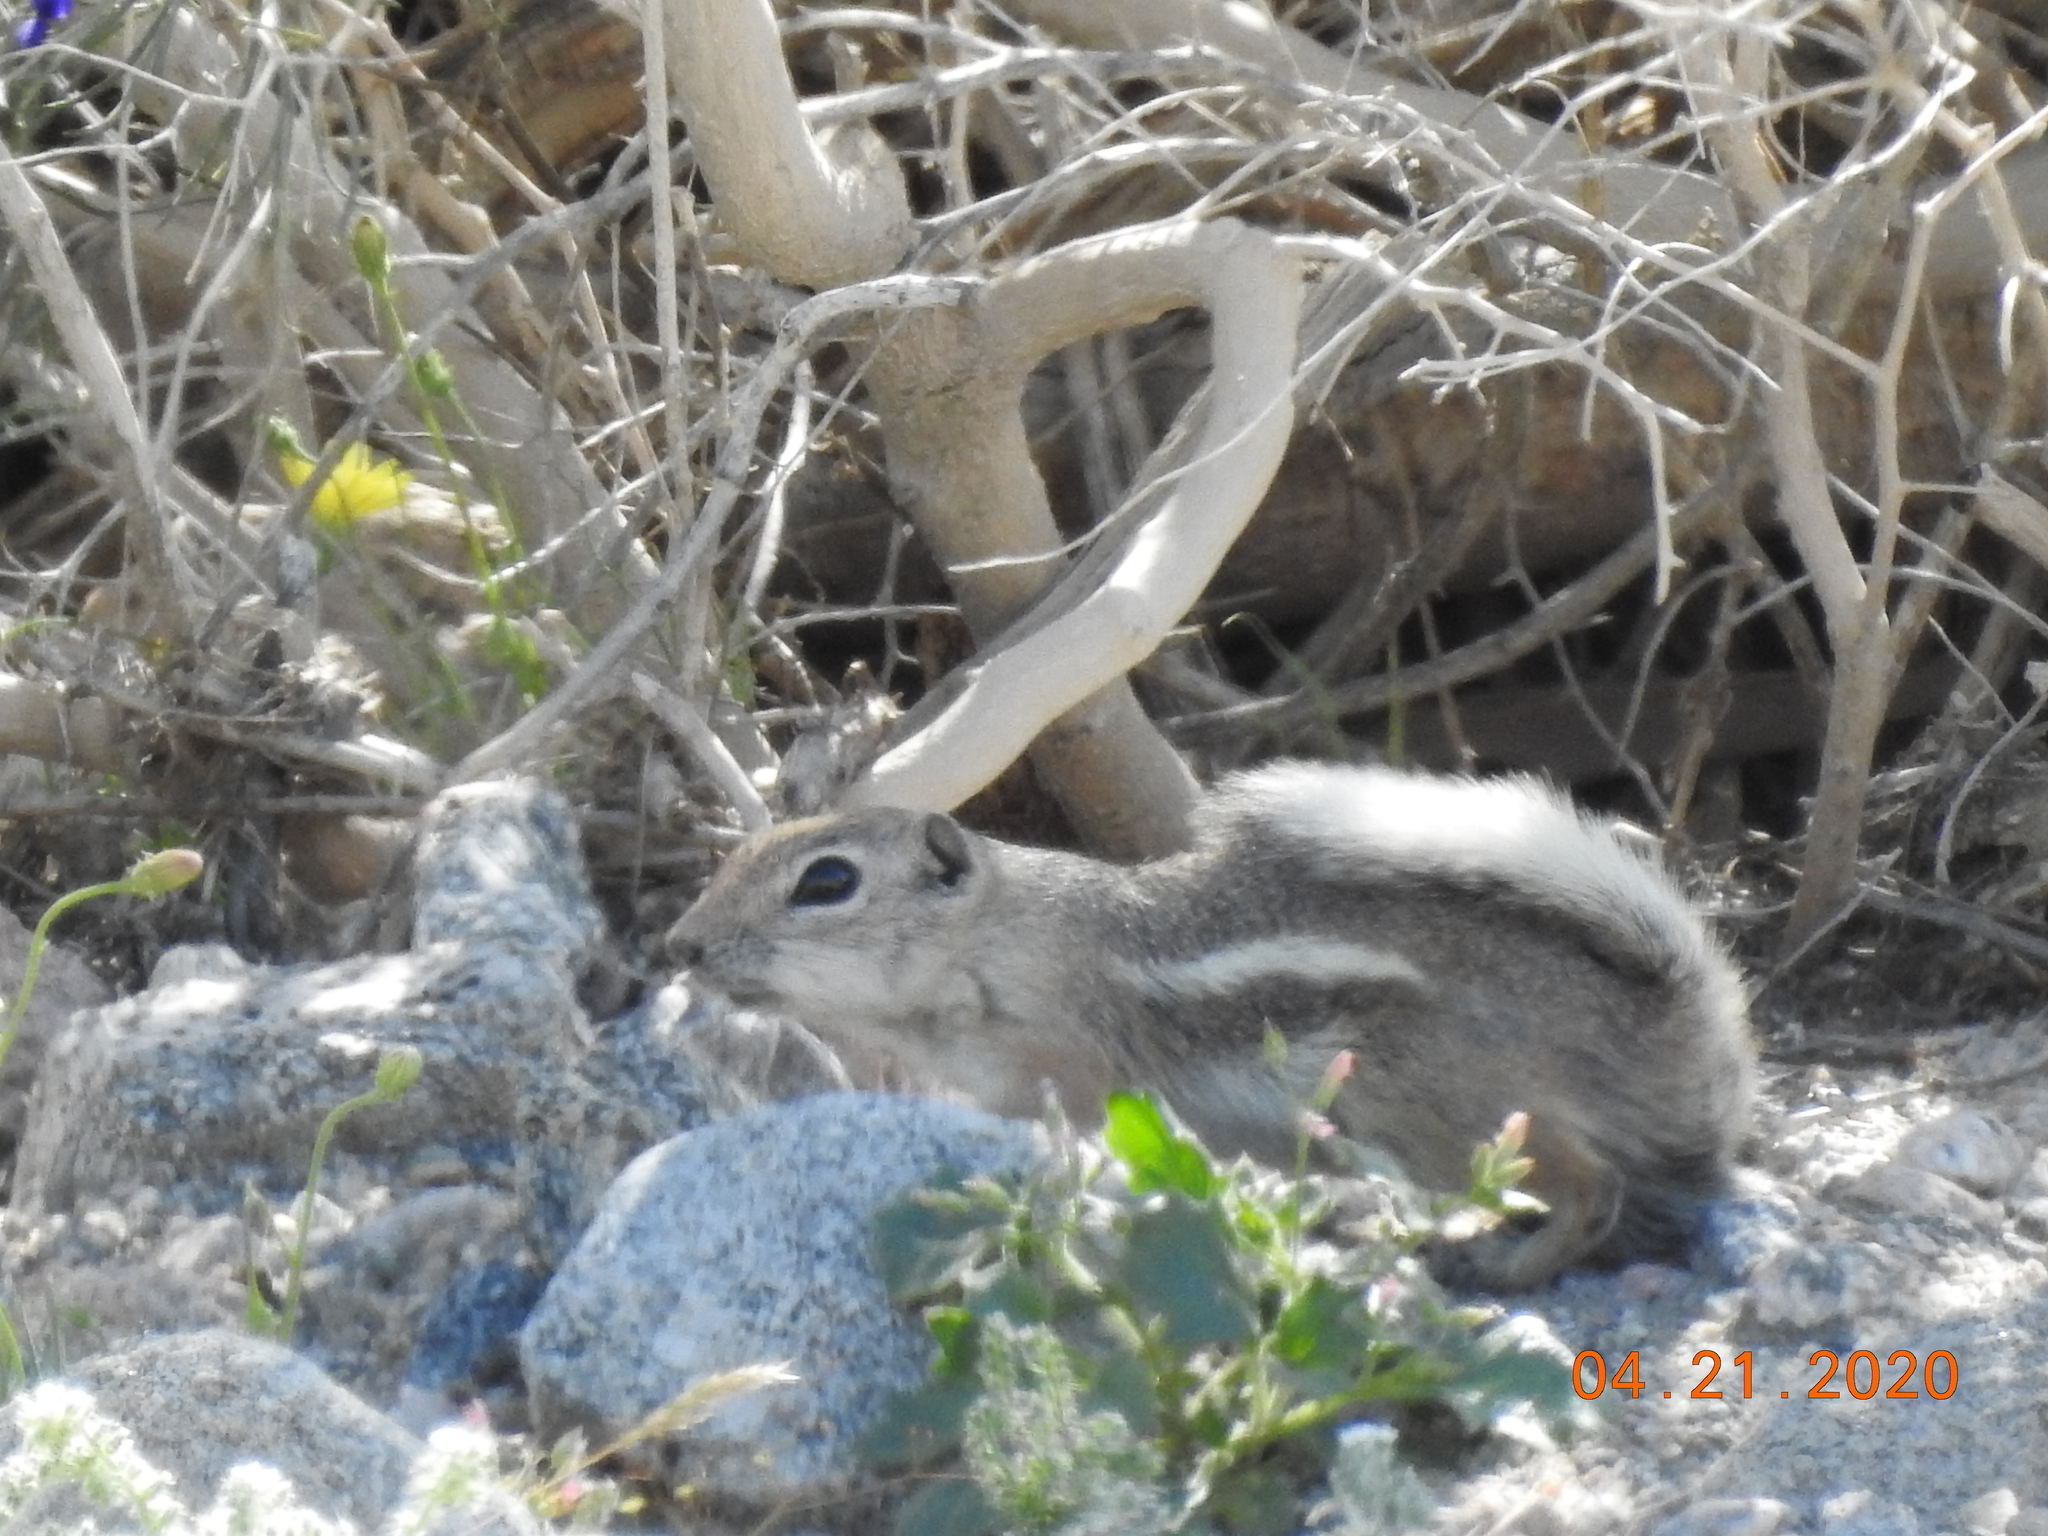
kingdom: Animalia
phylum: Chordata
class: Mammalia
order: Rodentia
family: Sciuridae
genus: Ammospermophilus
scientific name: Ammospermophilus leucurus
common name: White-tailed antelope squirrel
